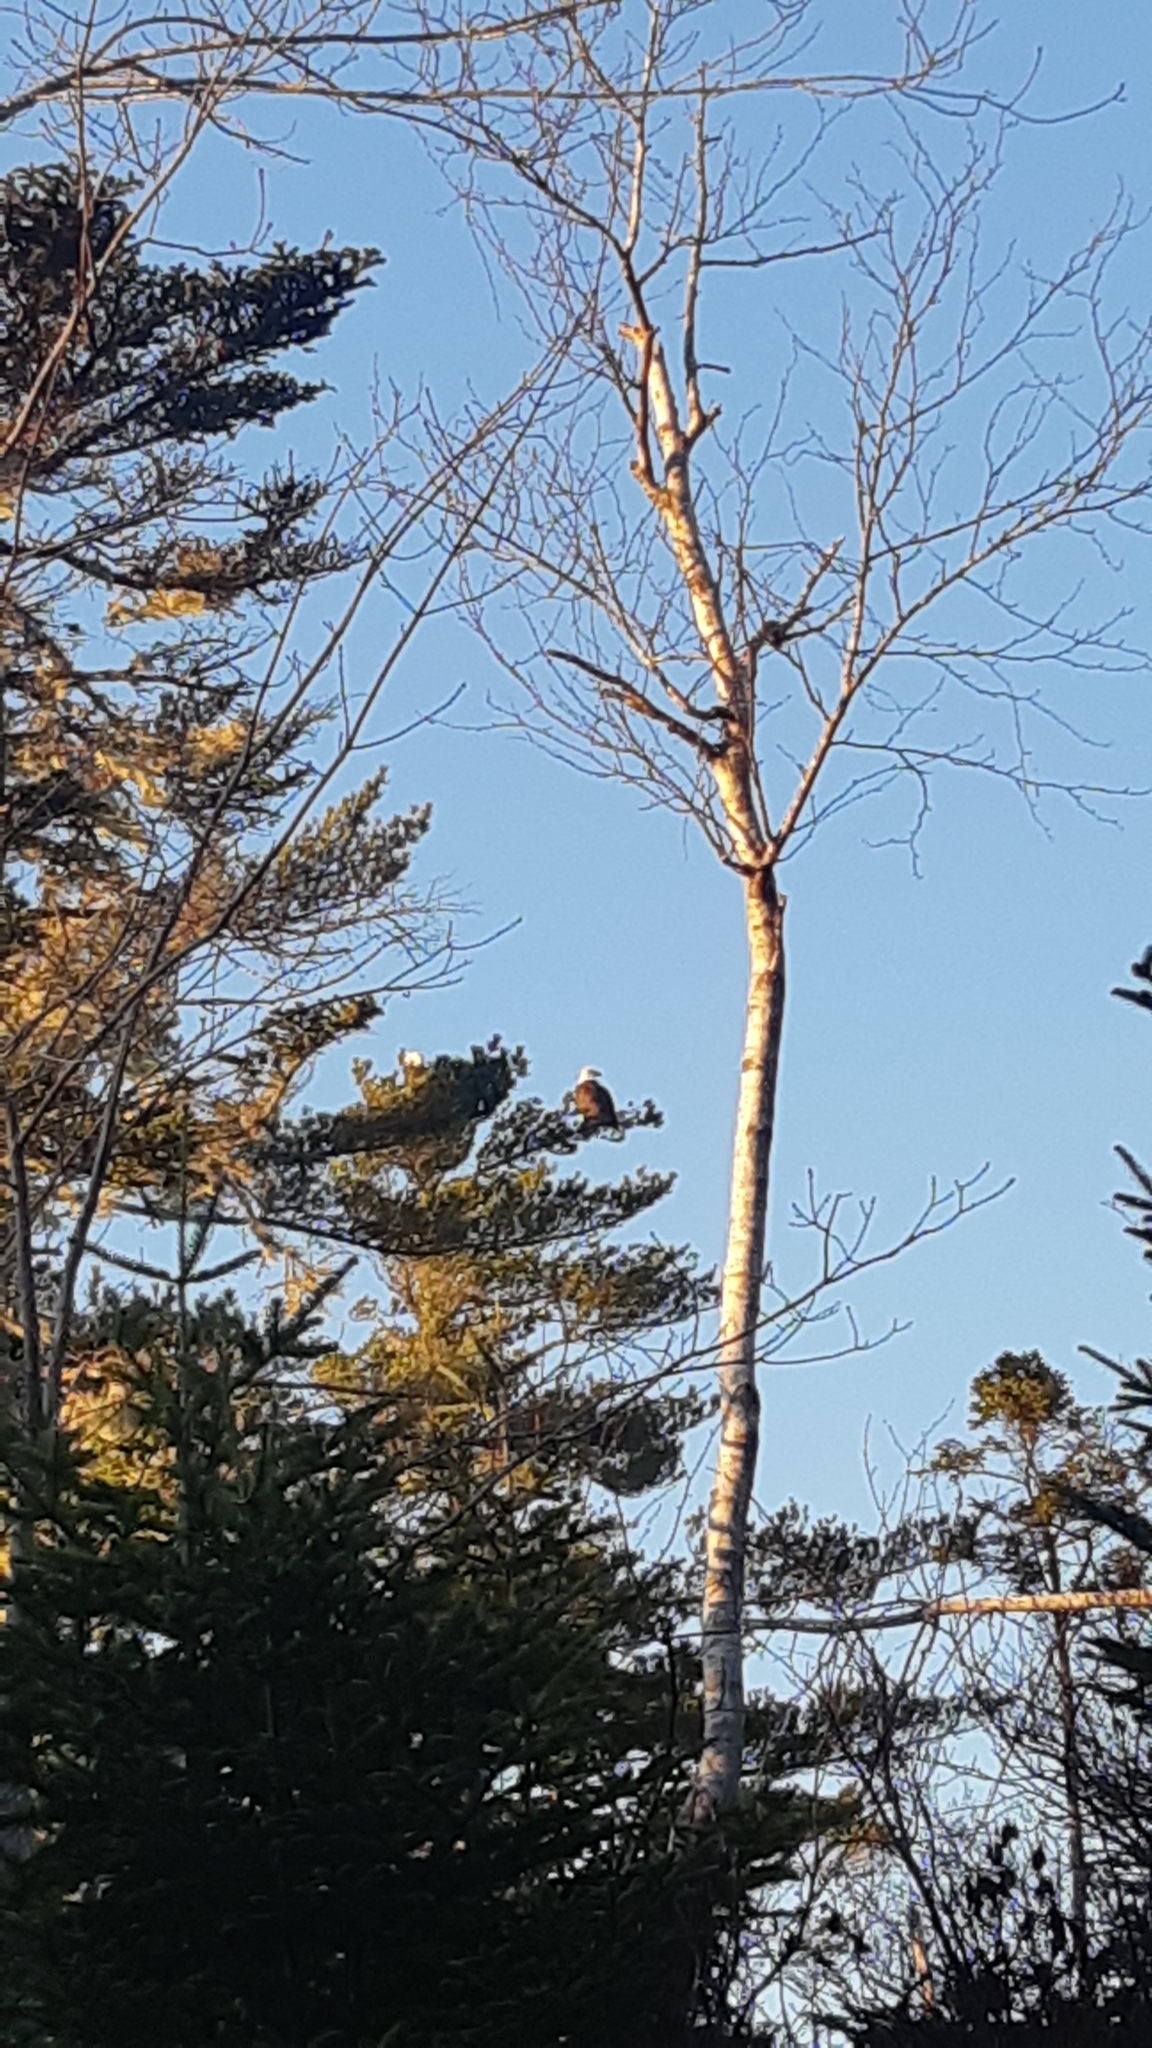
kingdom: Animalia
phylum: Chordata
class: Aves
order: Accipitriformes
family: Accipitridae
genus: Haliaeetus
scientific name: Haliaeetus leucocephalus
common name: Bald eagle
